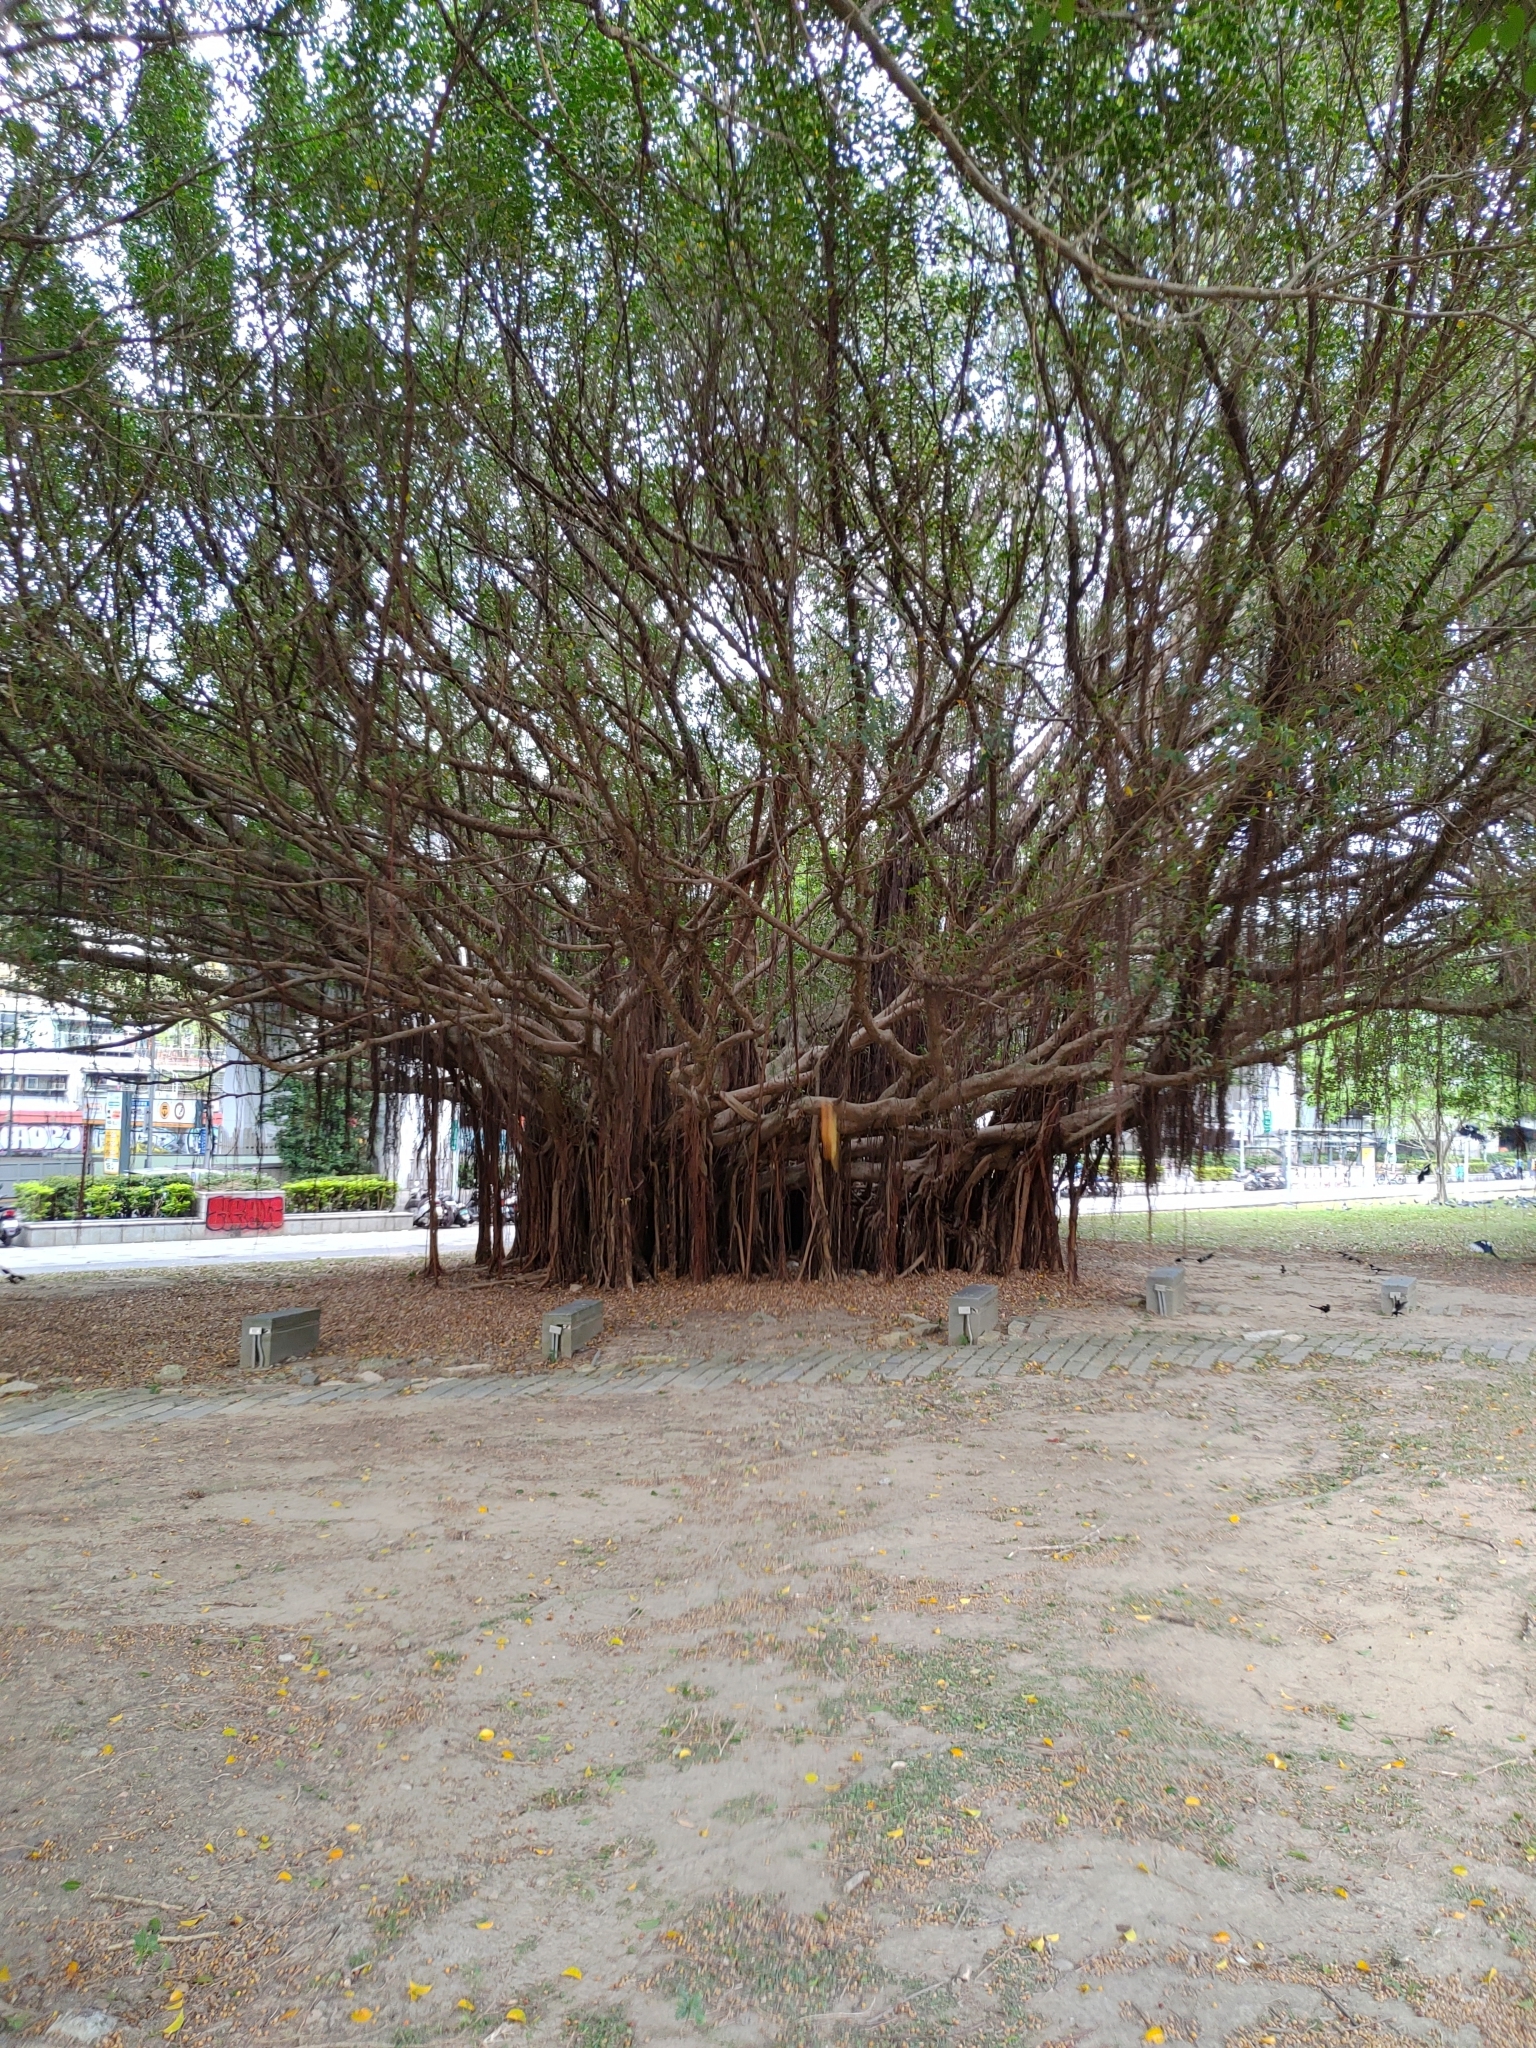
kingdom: Plantae
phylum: Tracheophyta
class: Magnoliopsida
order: Rosales
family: Moraceae
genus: Ficus
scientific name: Ficus microcarpa
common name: Chinese banyan
